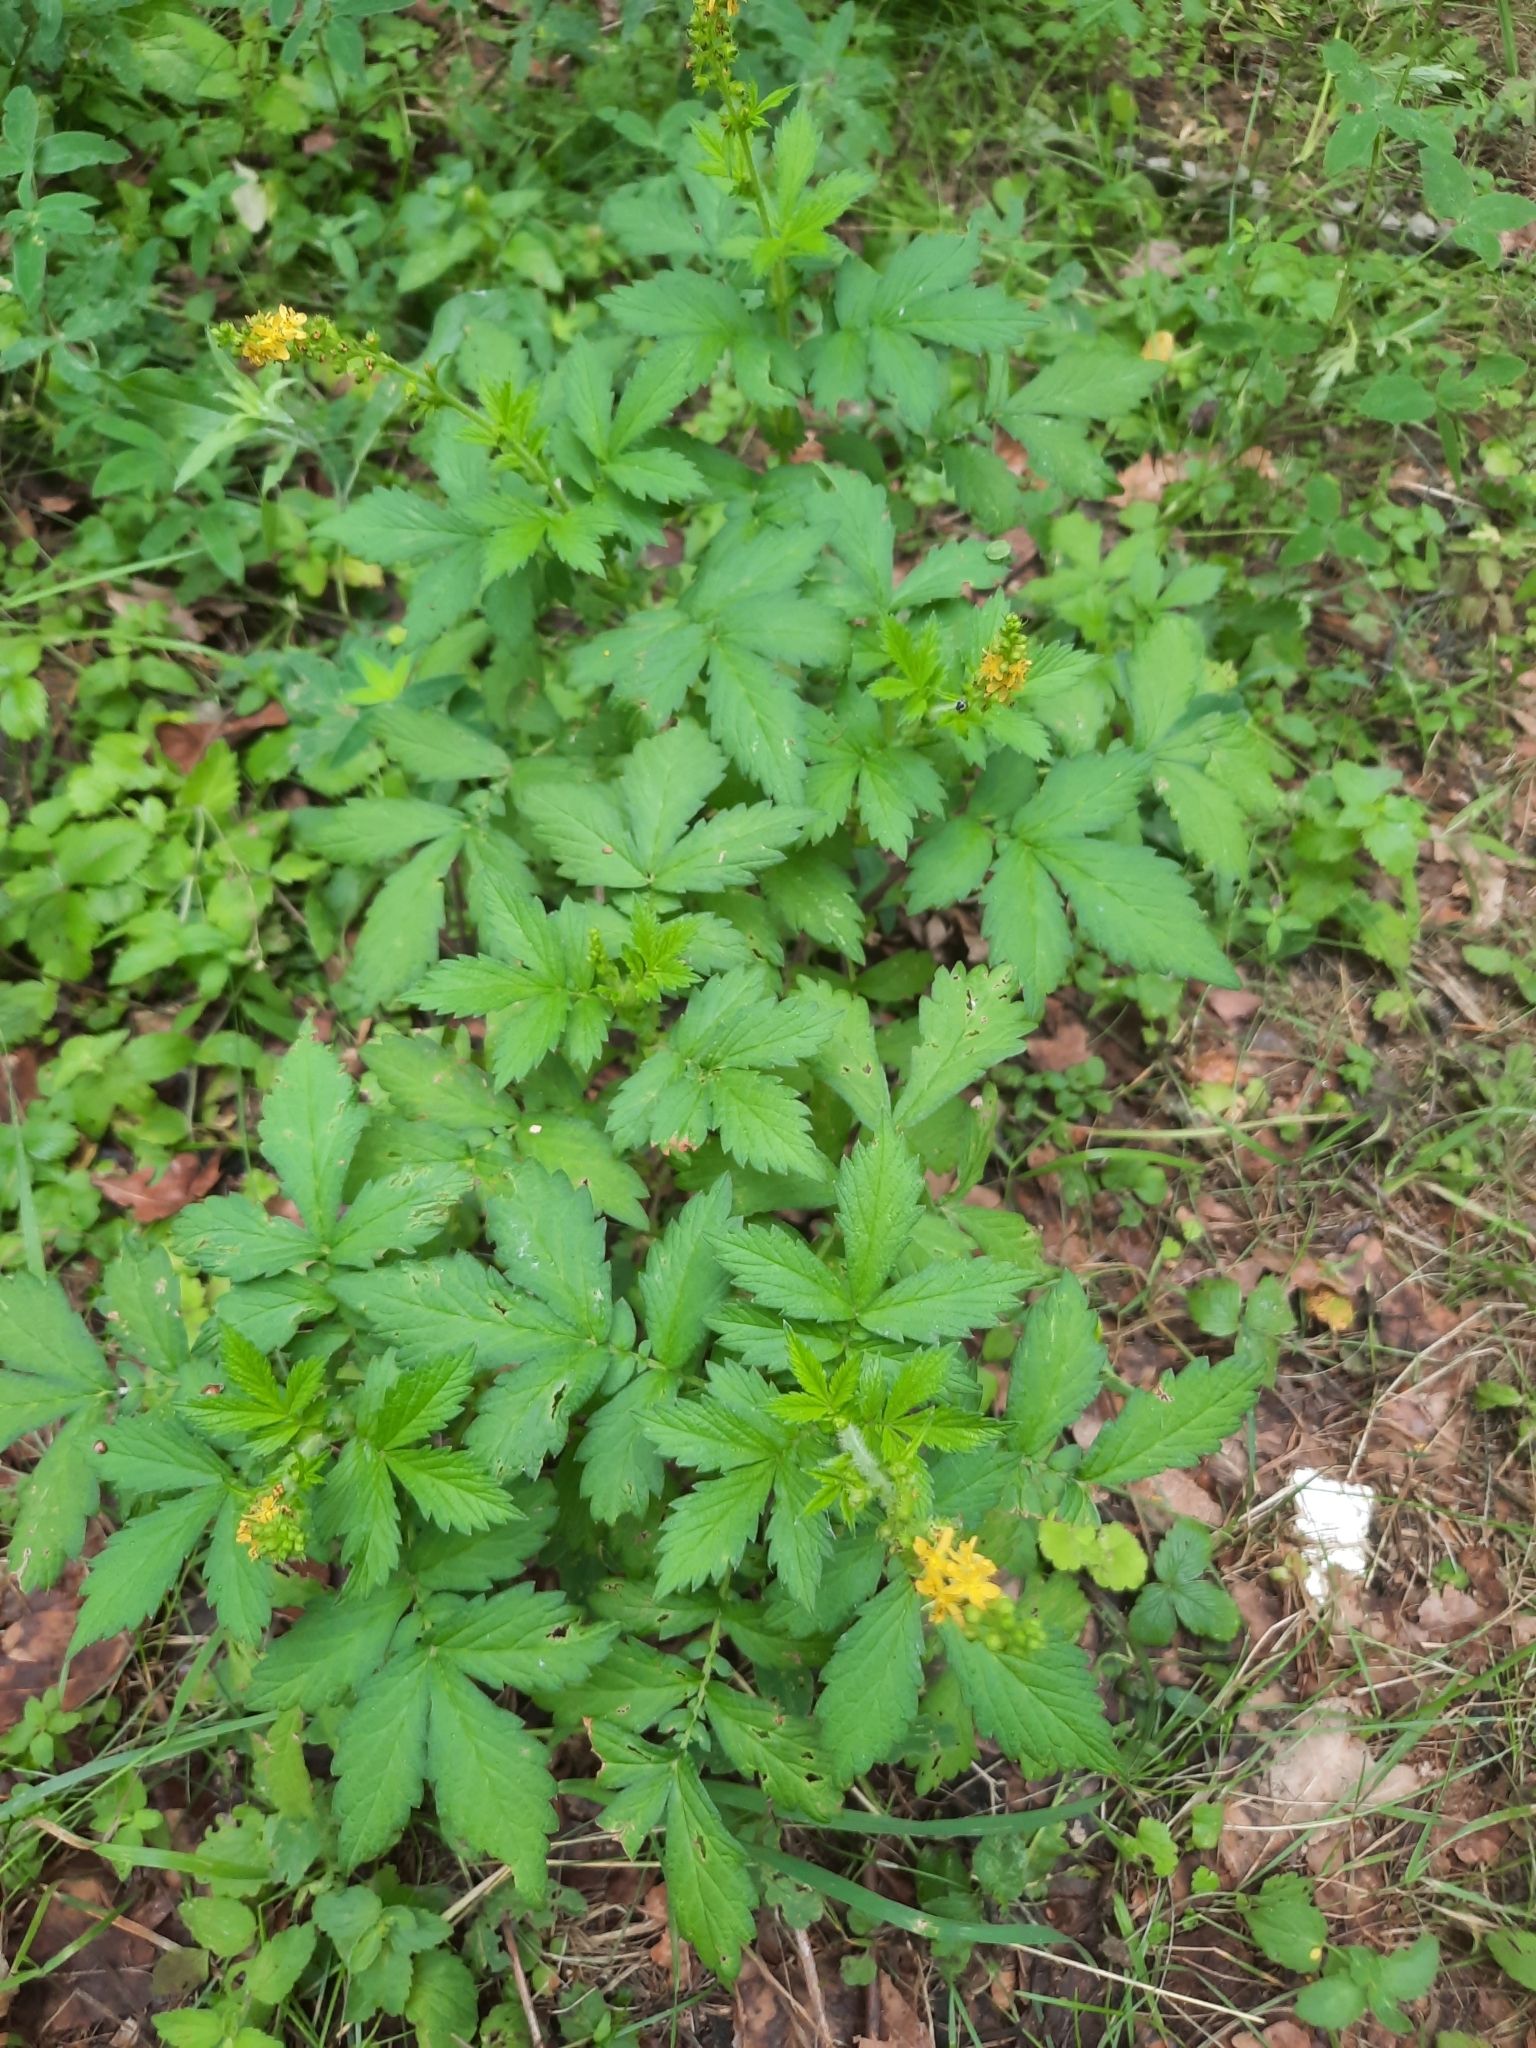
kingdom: Plantae
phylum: Tracheophyta
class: Magnoliopsida
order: Rosales
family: Rosaceae
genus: Agrimonia
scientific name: Agrimonia pilosa
